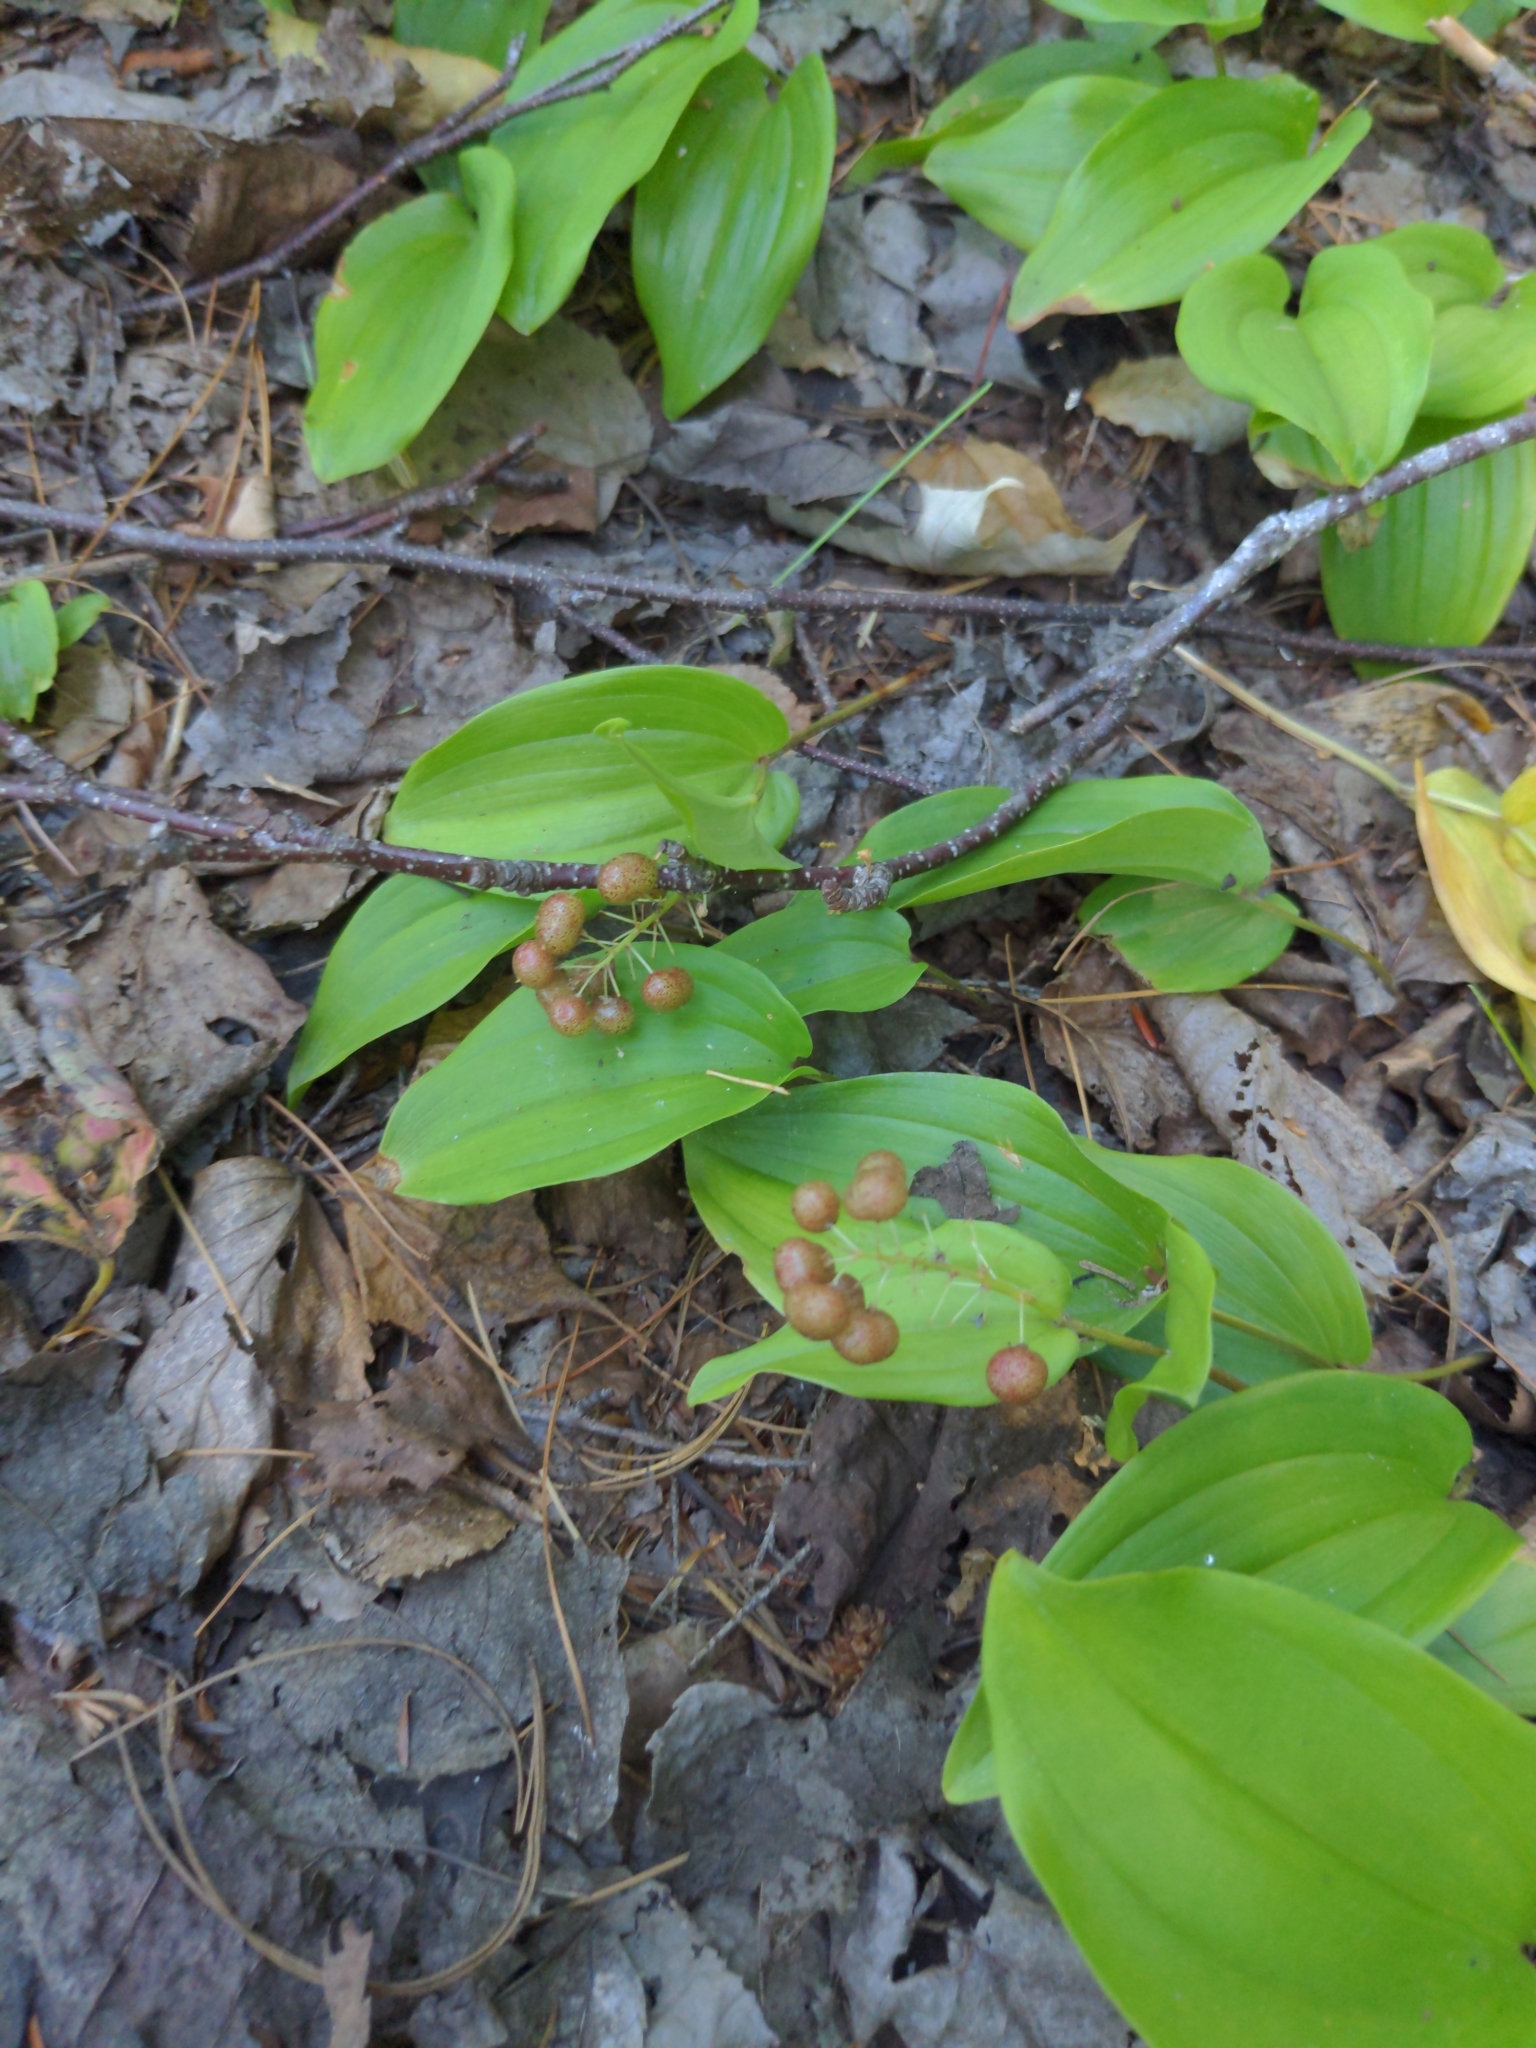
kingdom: Plantae
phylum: Tracheophyta
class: Liliopsida
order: Asparagales
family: Asparagaceae
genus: Maianthemum
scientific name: Maianthemum canadense
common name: False lily-of-the-valley
